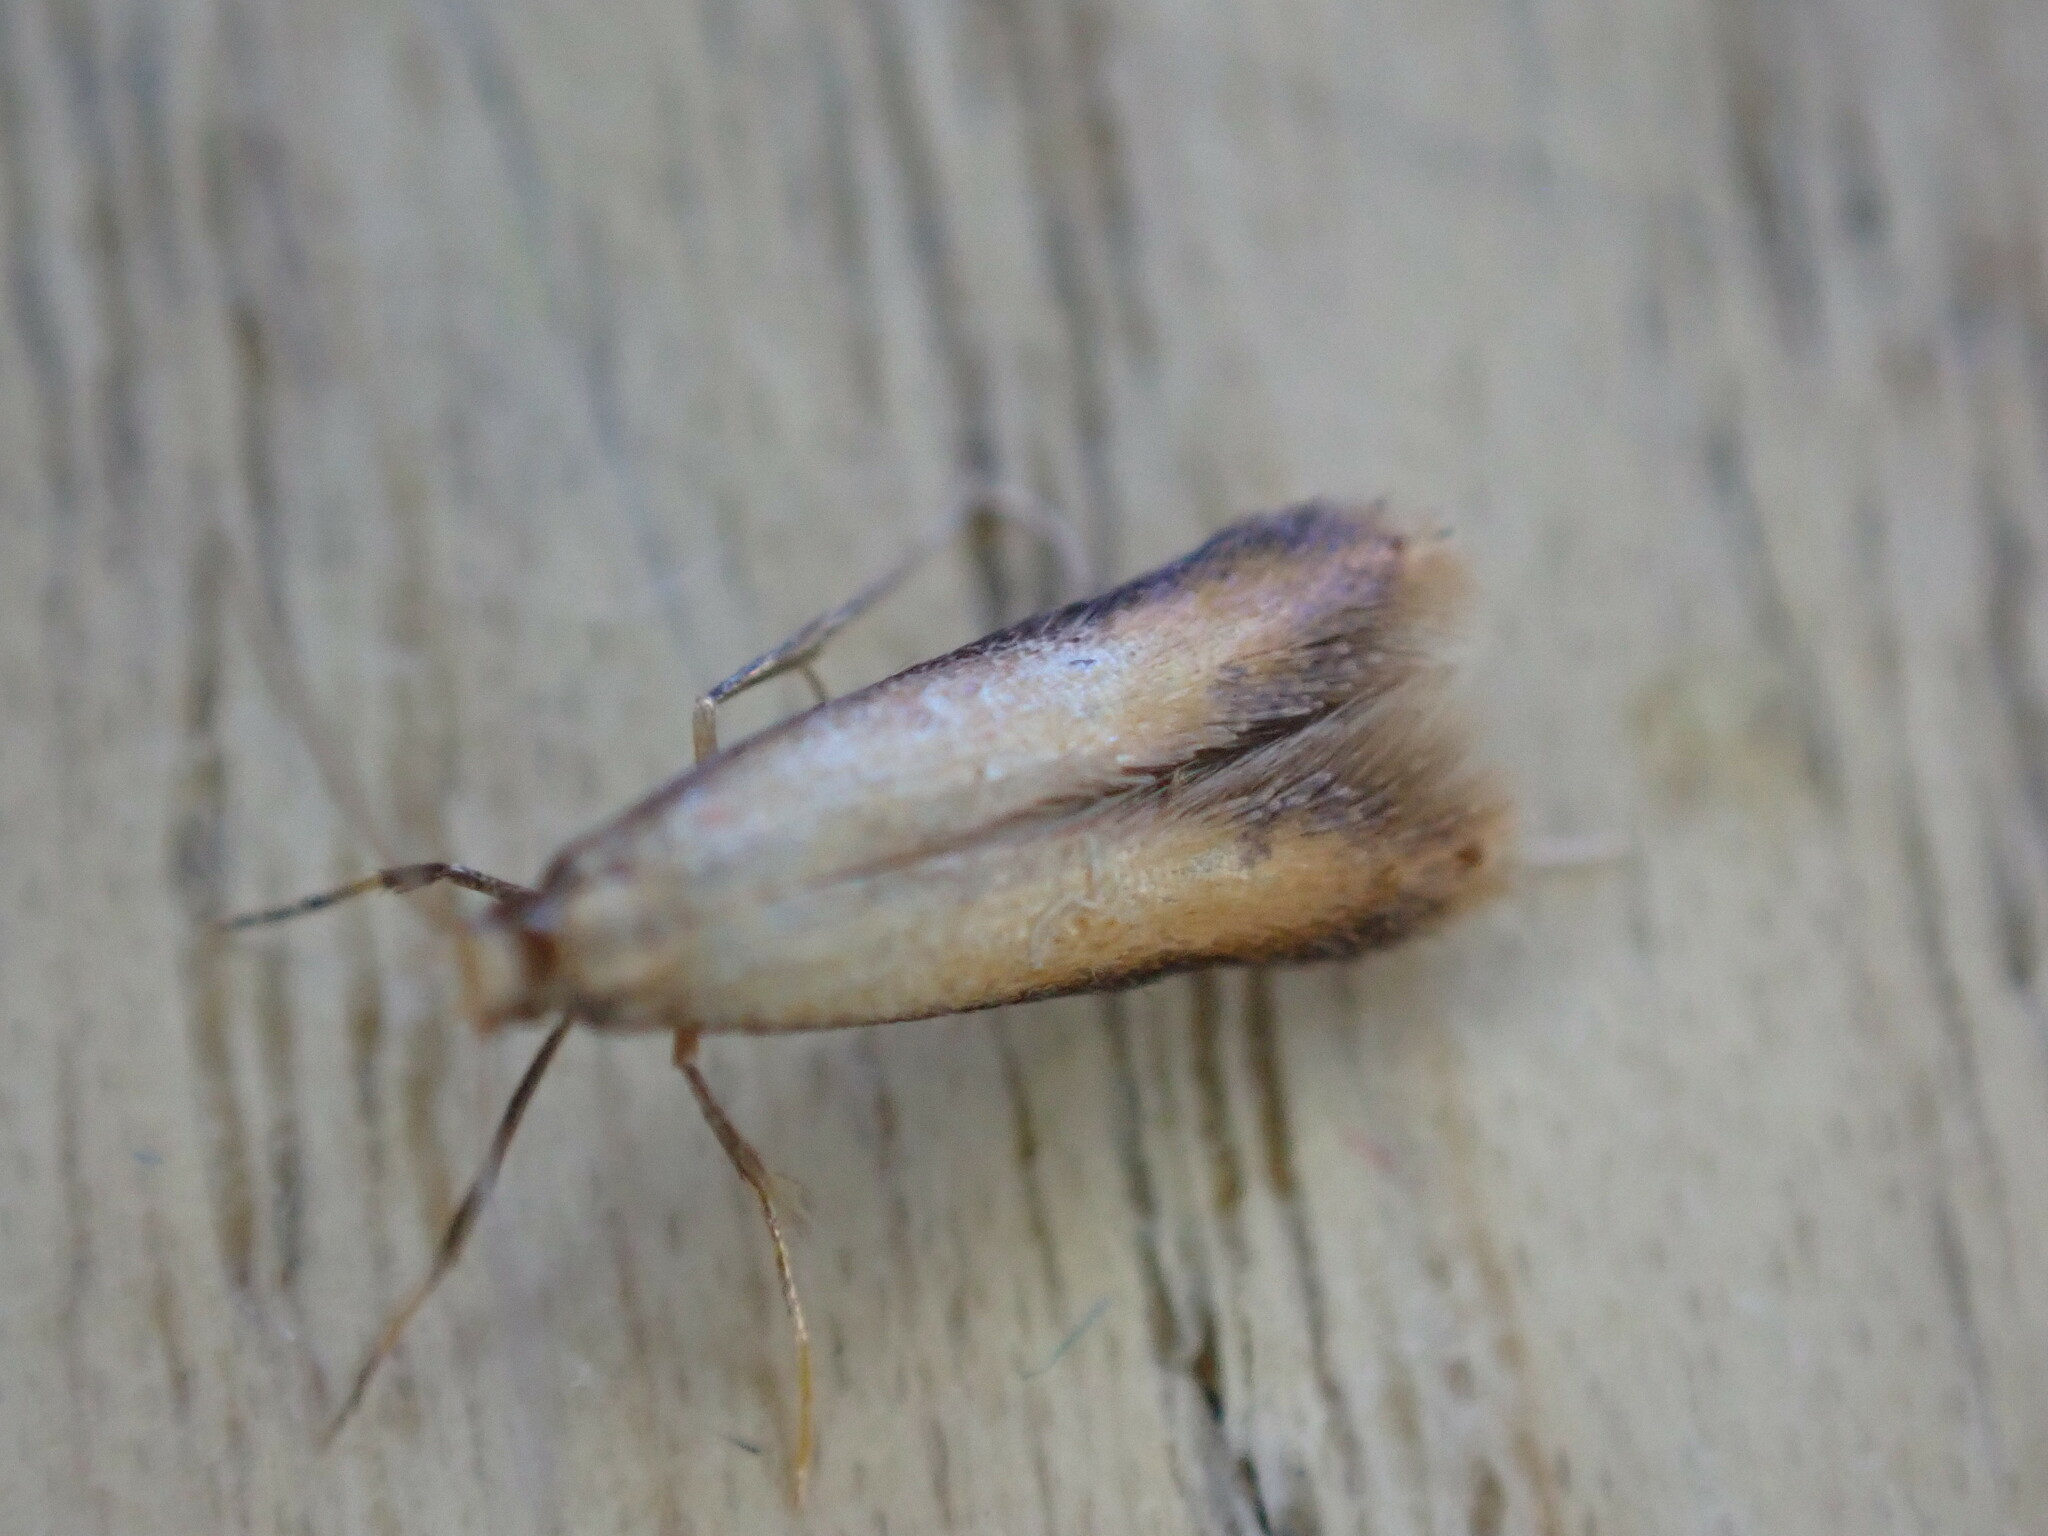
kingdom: Animalia
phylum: Arthropoda
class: Insecta
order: Lepidoptera
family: Tischeriidae
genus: Coptotriche
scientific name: Coptotriche marginea
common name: Bordered carl
